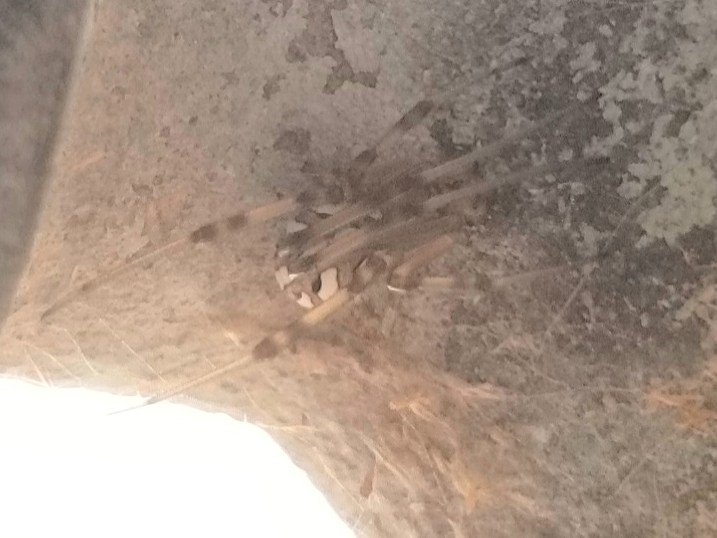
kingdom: Animalia
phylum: Arthropoda
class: Arachnida
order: Araneae
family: Theridiidae
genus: Latrodectus
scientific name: Latrodectus geometricus
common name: Brown widow spider
